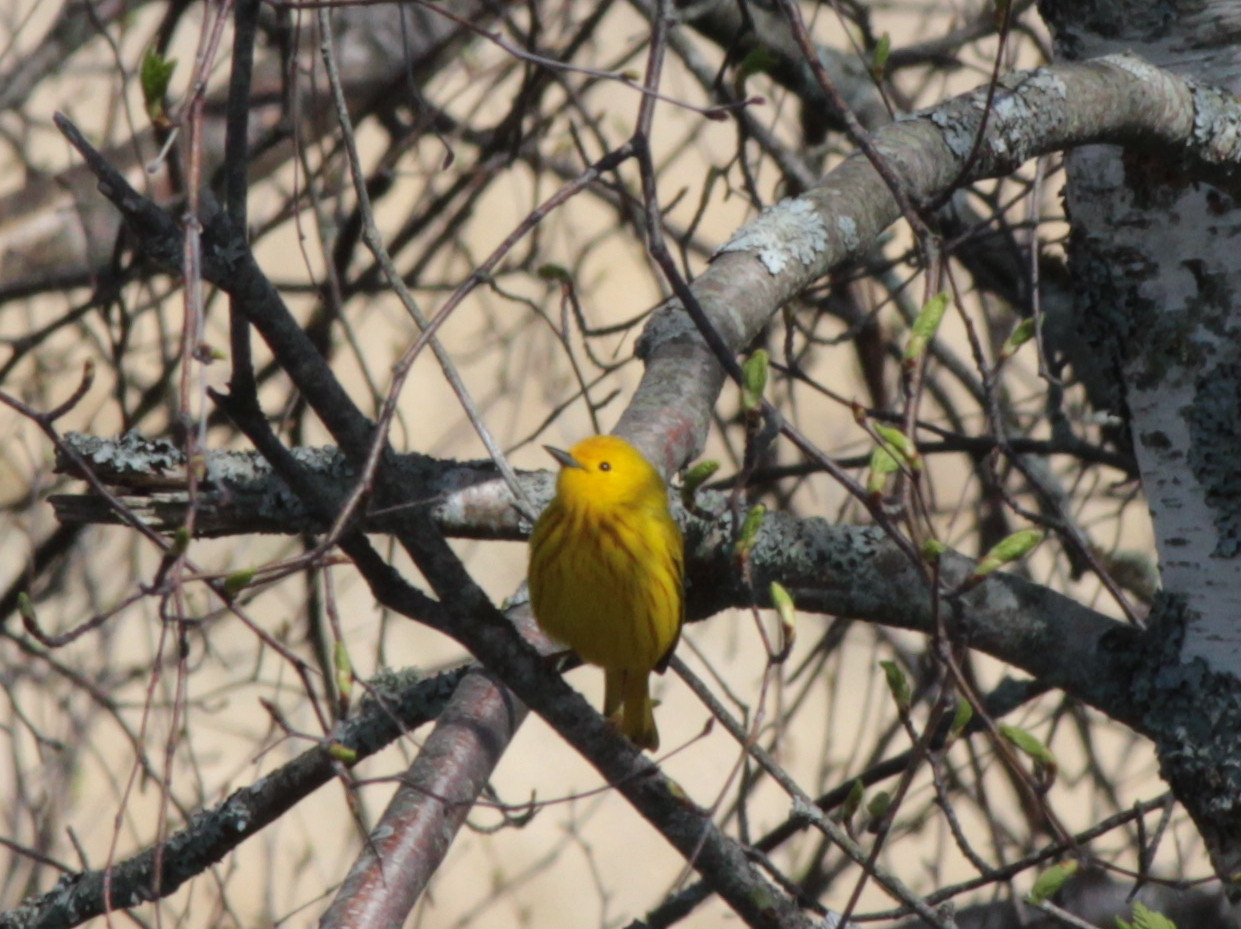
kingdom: Animalia
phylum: Chordata
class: Aves
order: Passeriformes
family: Parulidae
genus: Setophaga
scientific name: Setophaga petechia
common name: Yellow warbler
